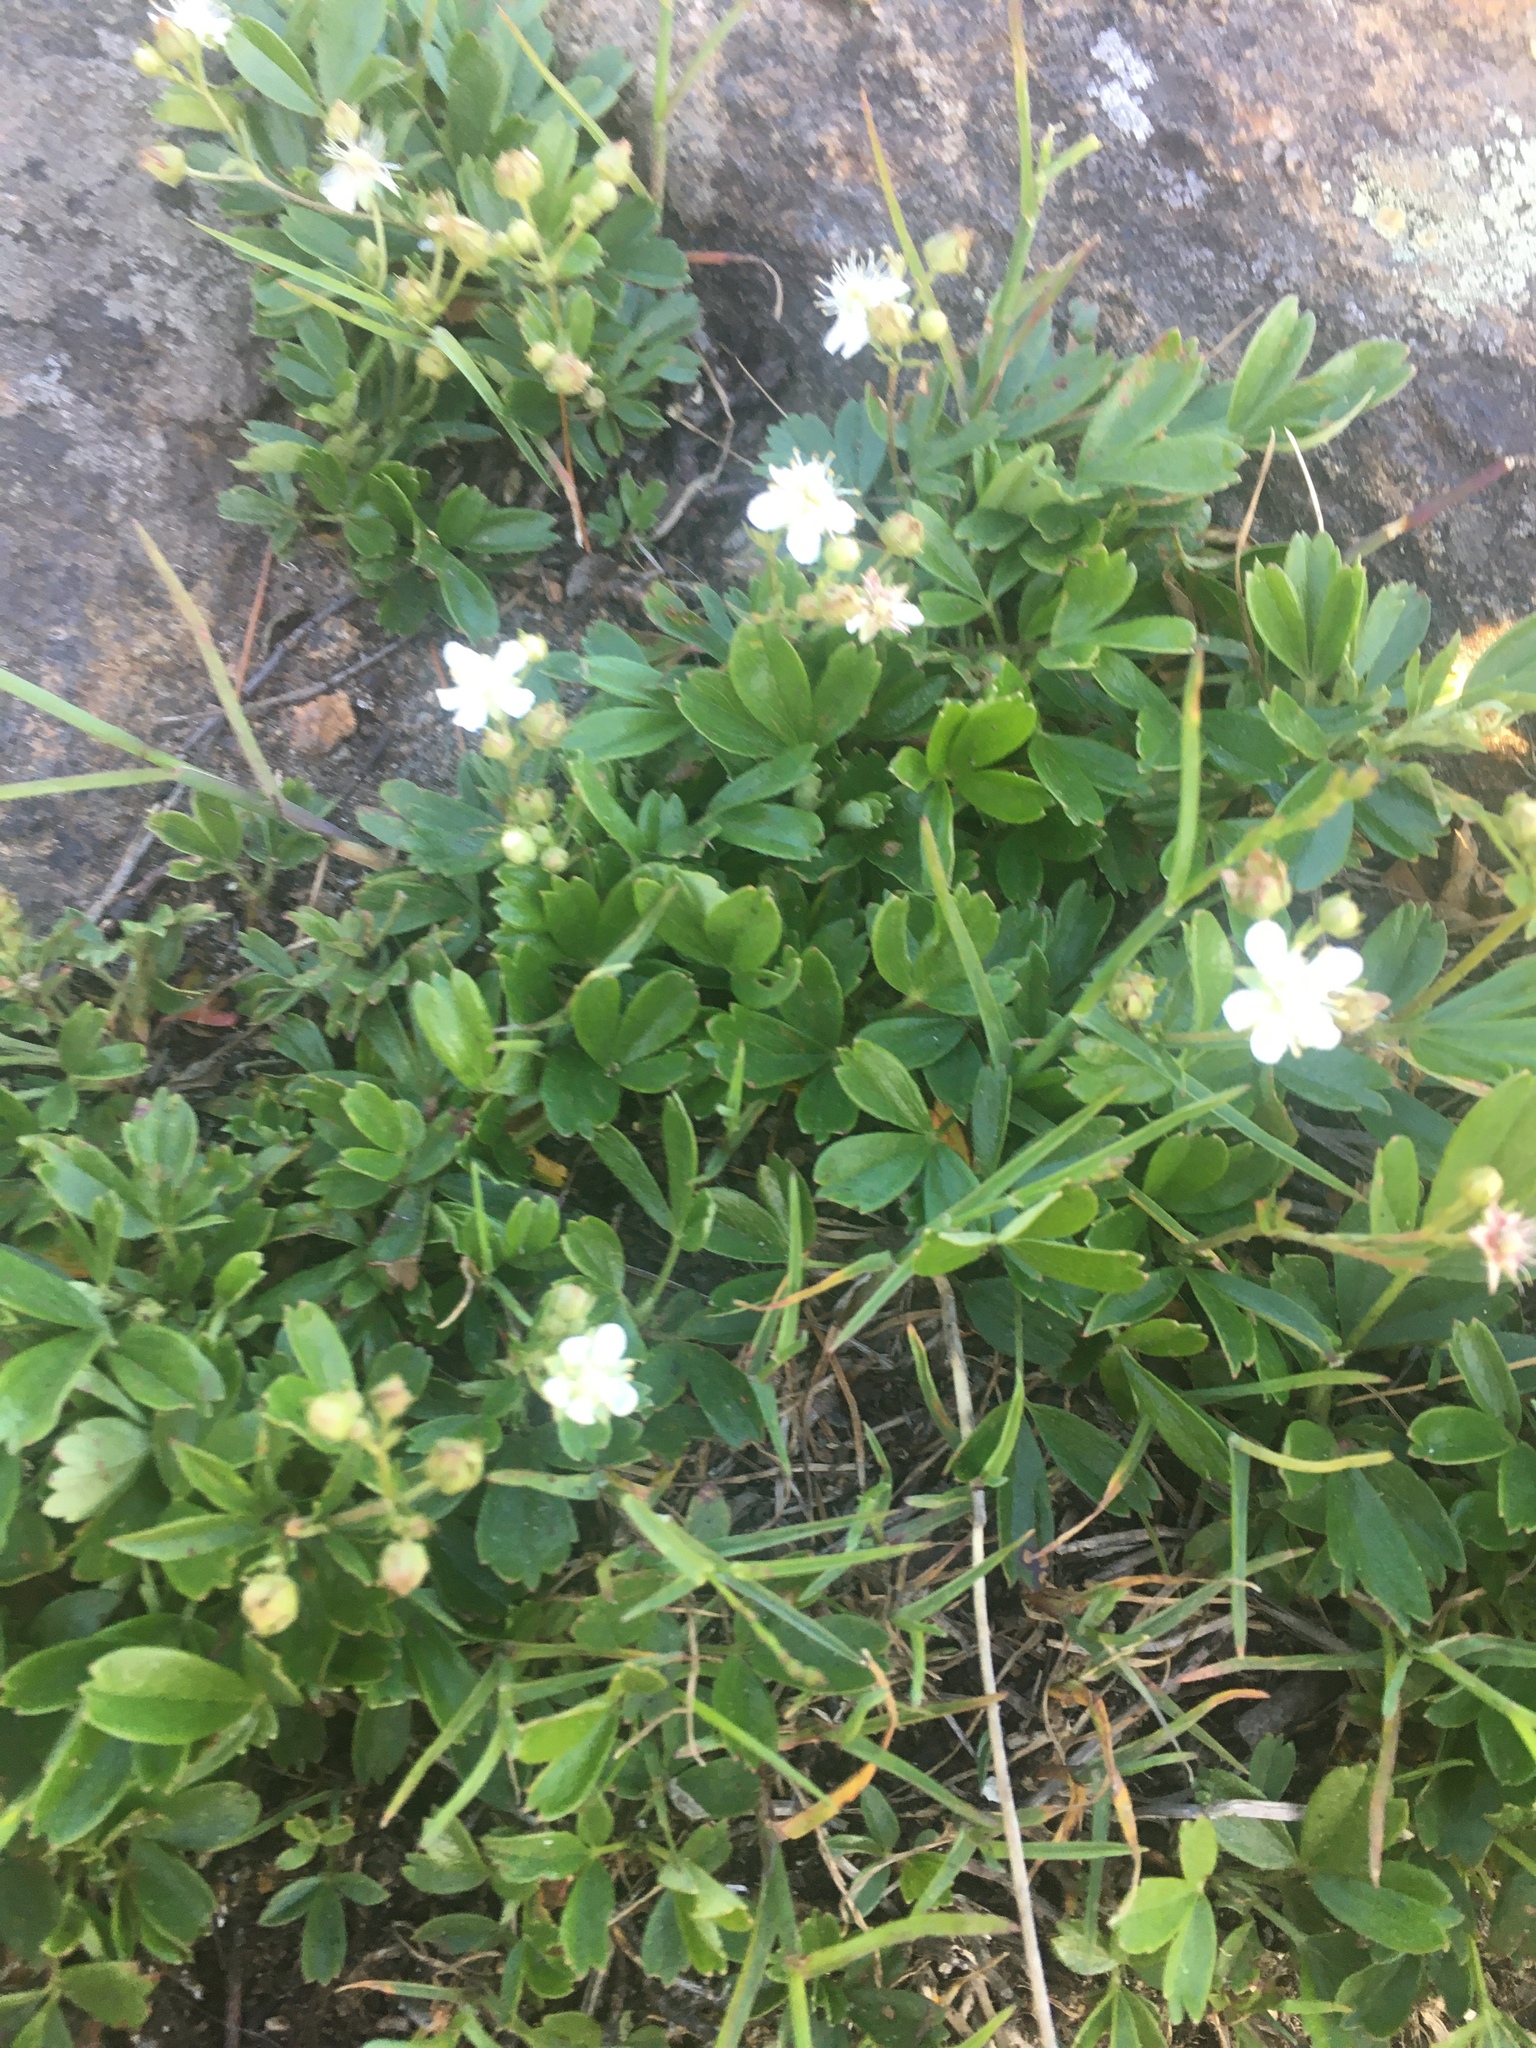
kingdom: Plantae
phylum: Tracheophyta
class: Magnoliopsida
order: Rosales
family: Rosaceae
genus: Sibbaldia
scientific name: Sibbaldia tridentata
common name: Three-toothed cinquefoil
